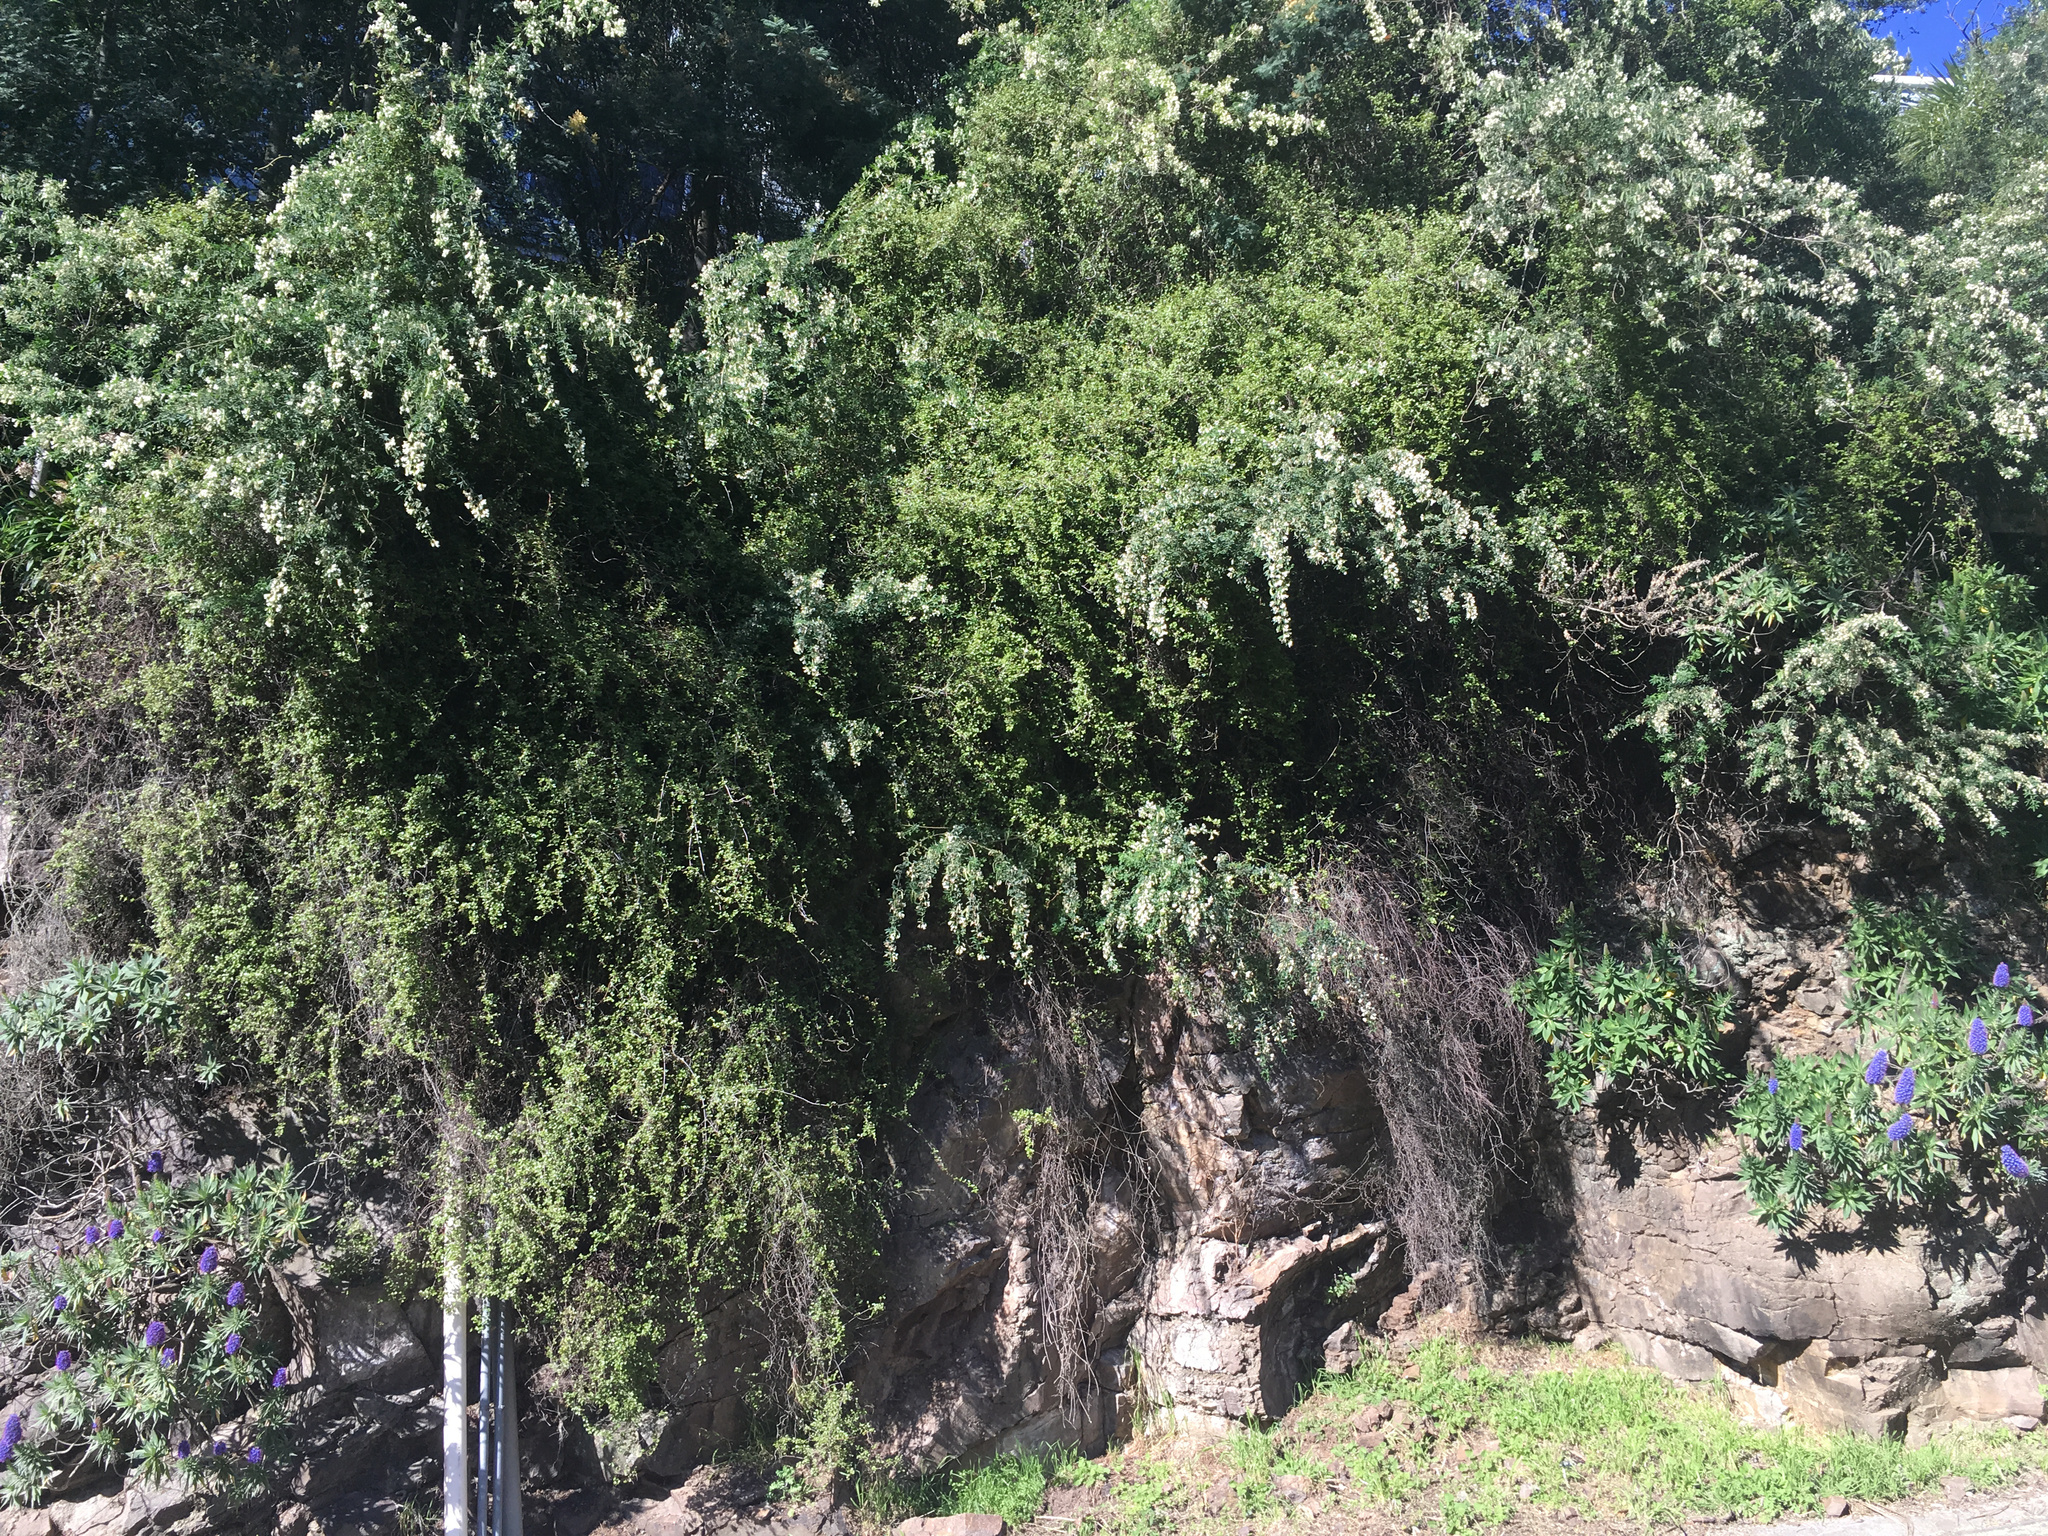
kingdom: Plantae
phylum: Tracheophyta
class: Magnoliopsida
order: Caryophyllales
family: Polygonaceae
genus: Muehlenbeckia
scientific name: Muehlenbeckia complexa
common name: Wireplant
